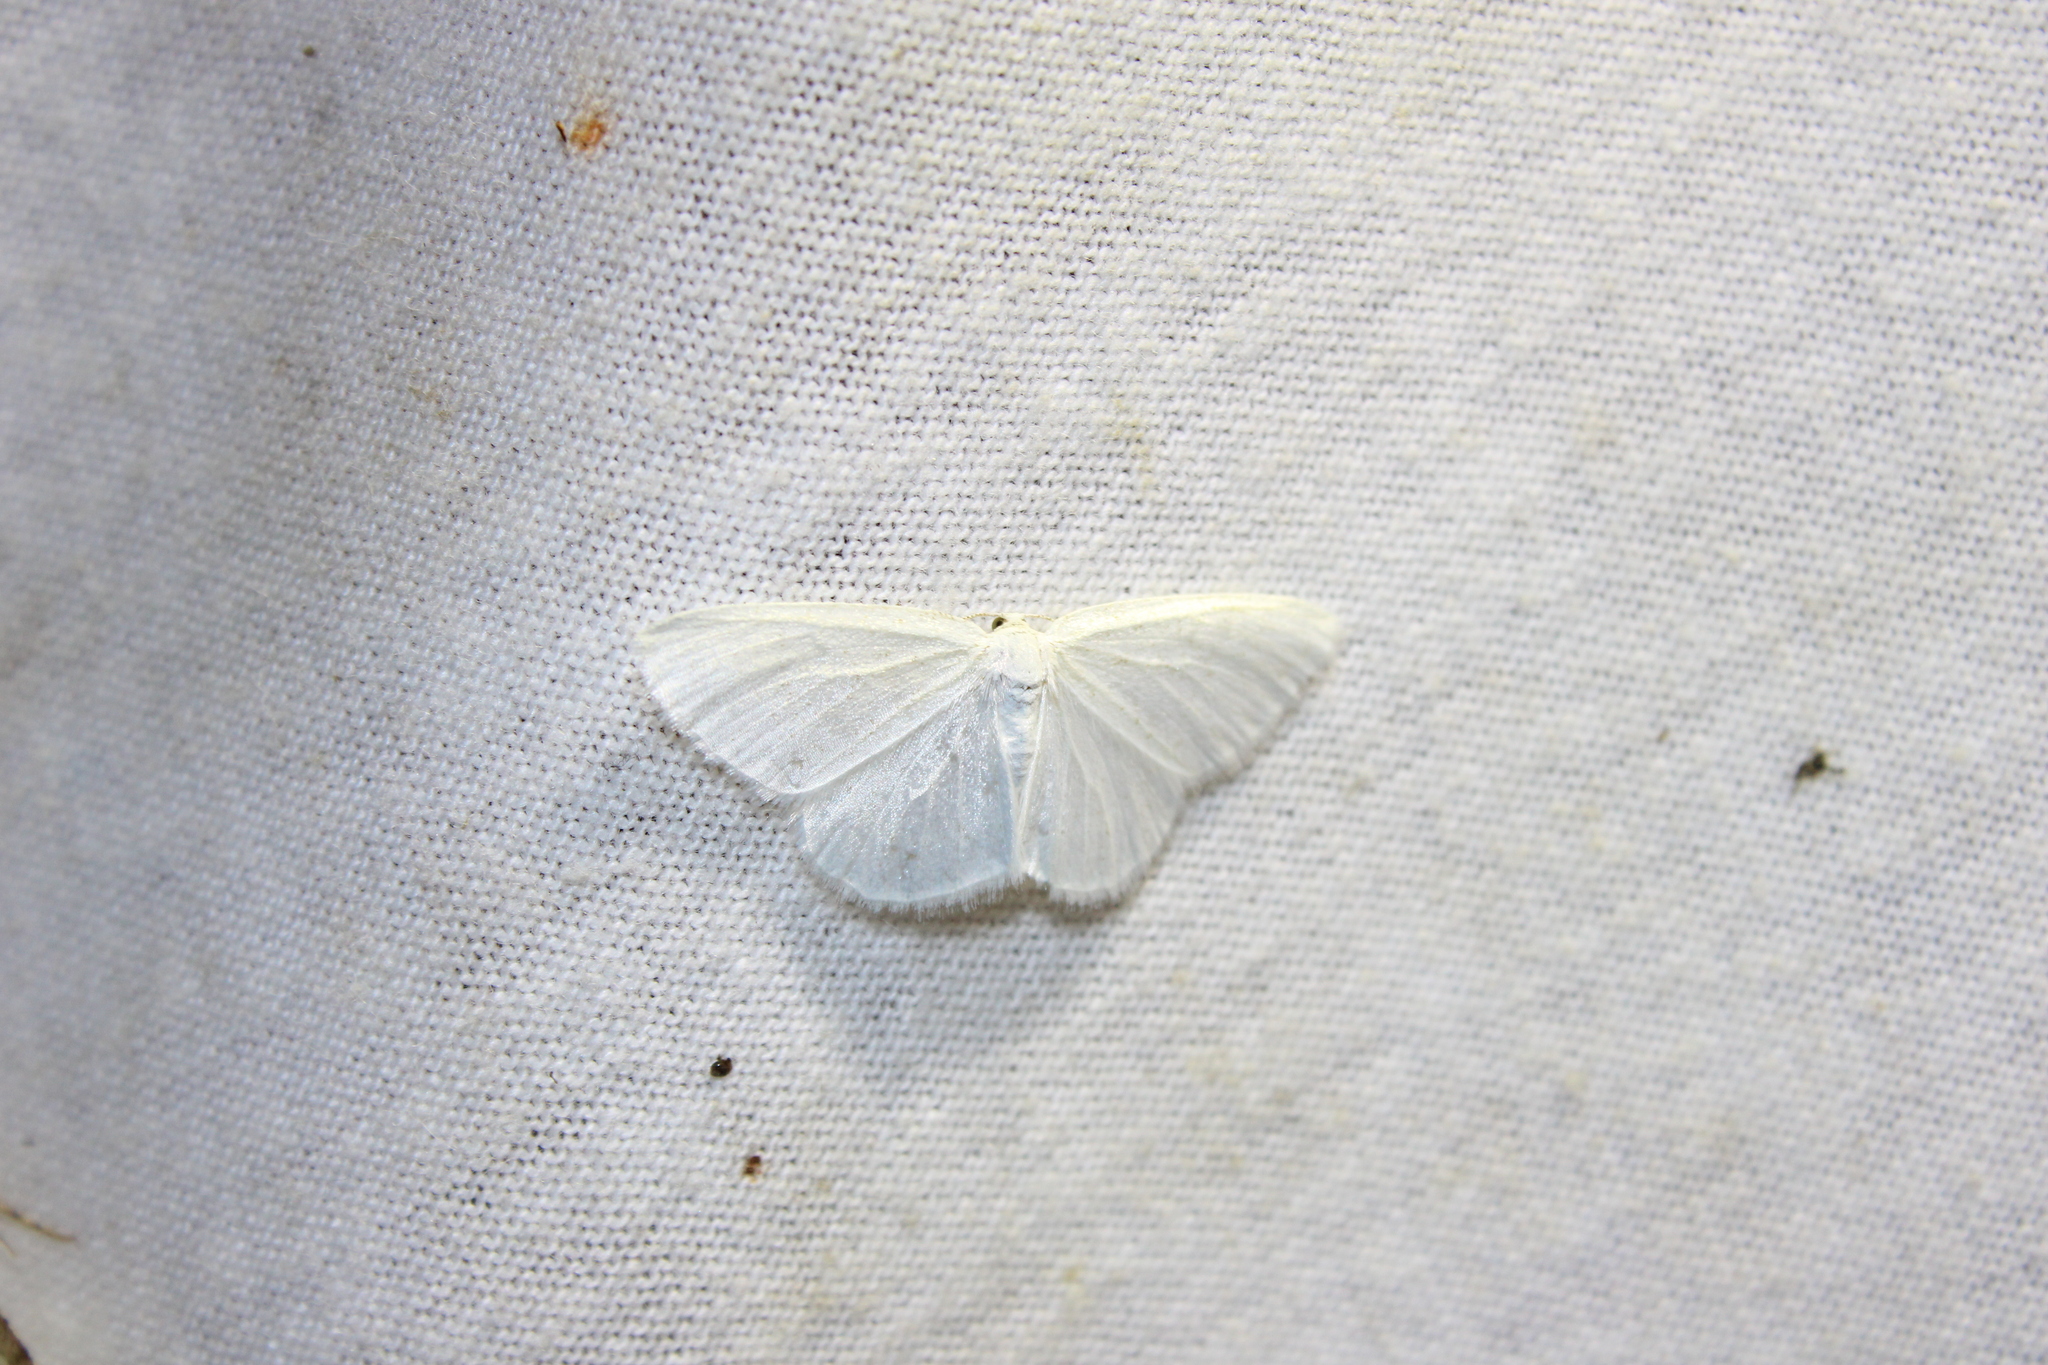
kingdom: Animalia
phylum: Arthropoda
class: Insecta
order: Lepidoptera
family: Geometridae
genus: Lomographa
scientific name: Lomographa vestaliata
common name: White spring moth
